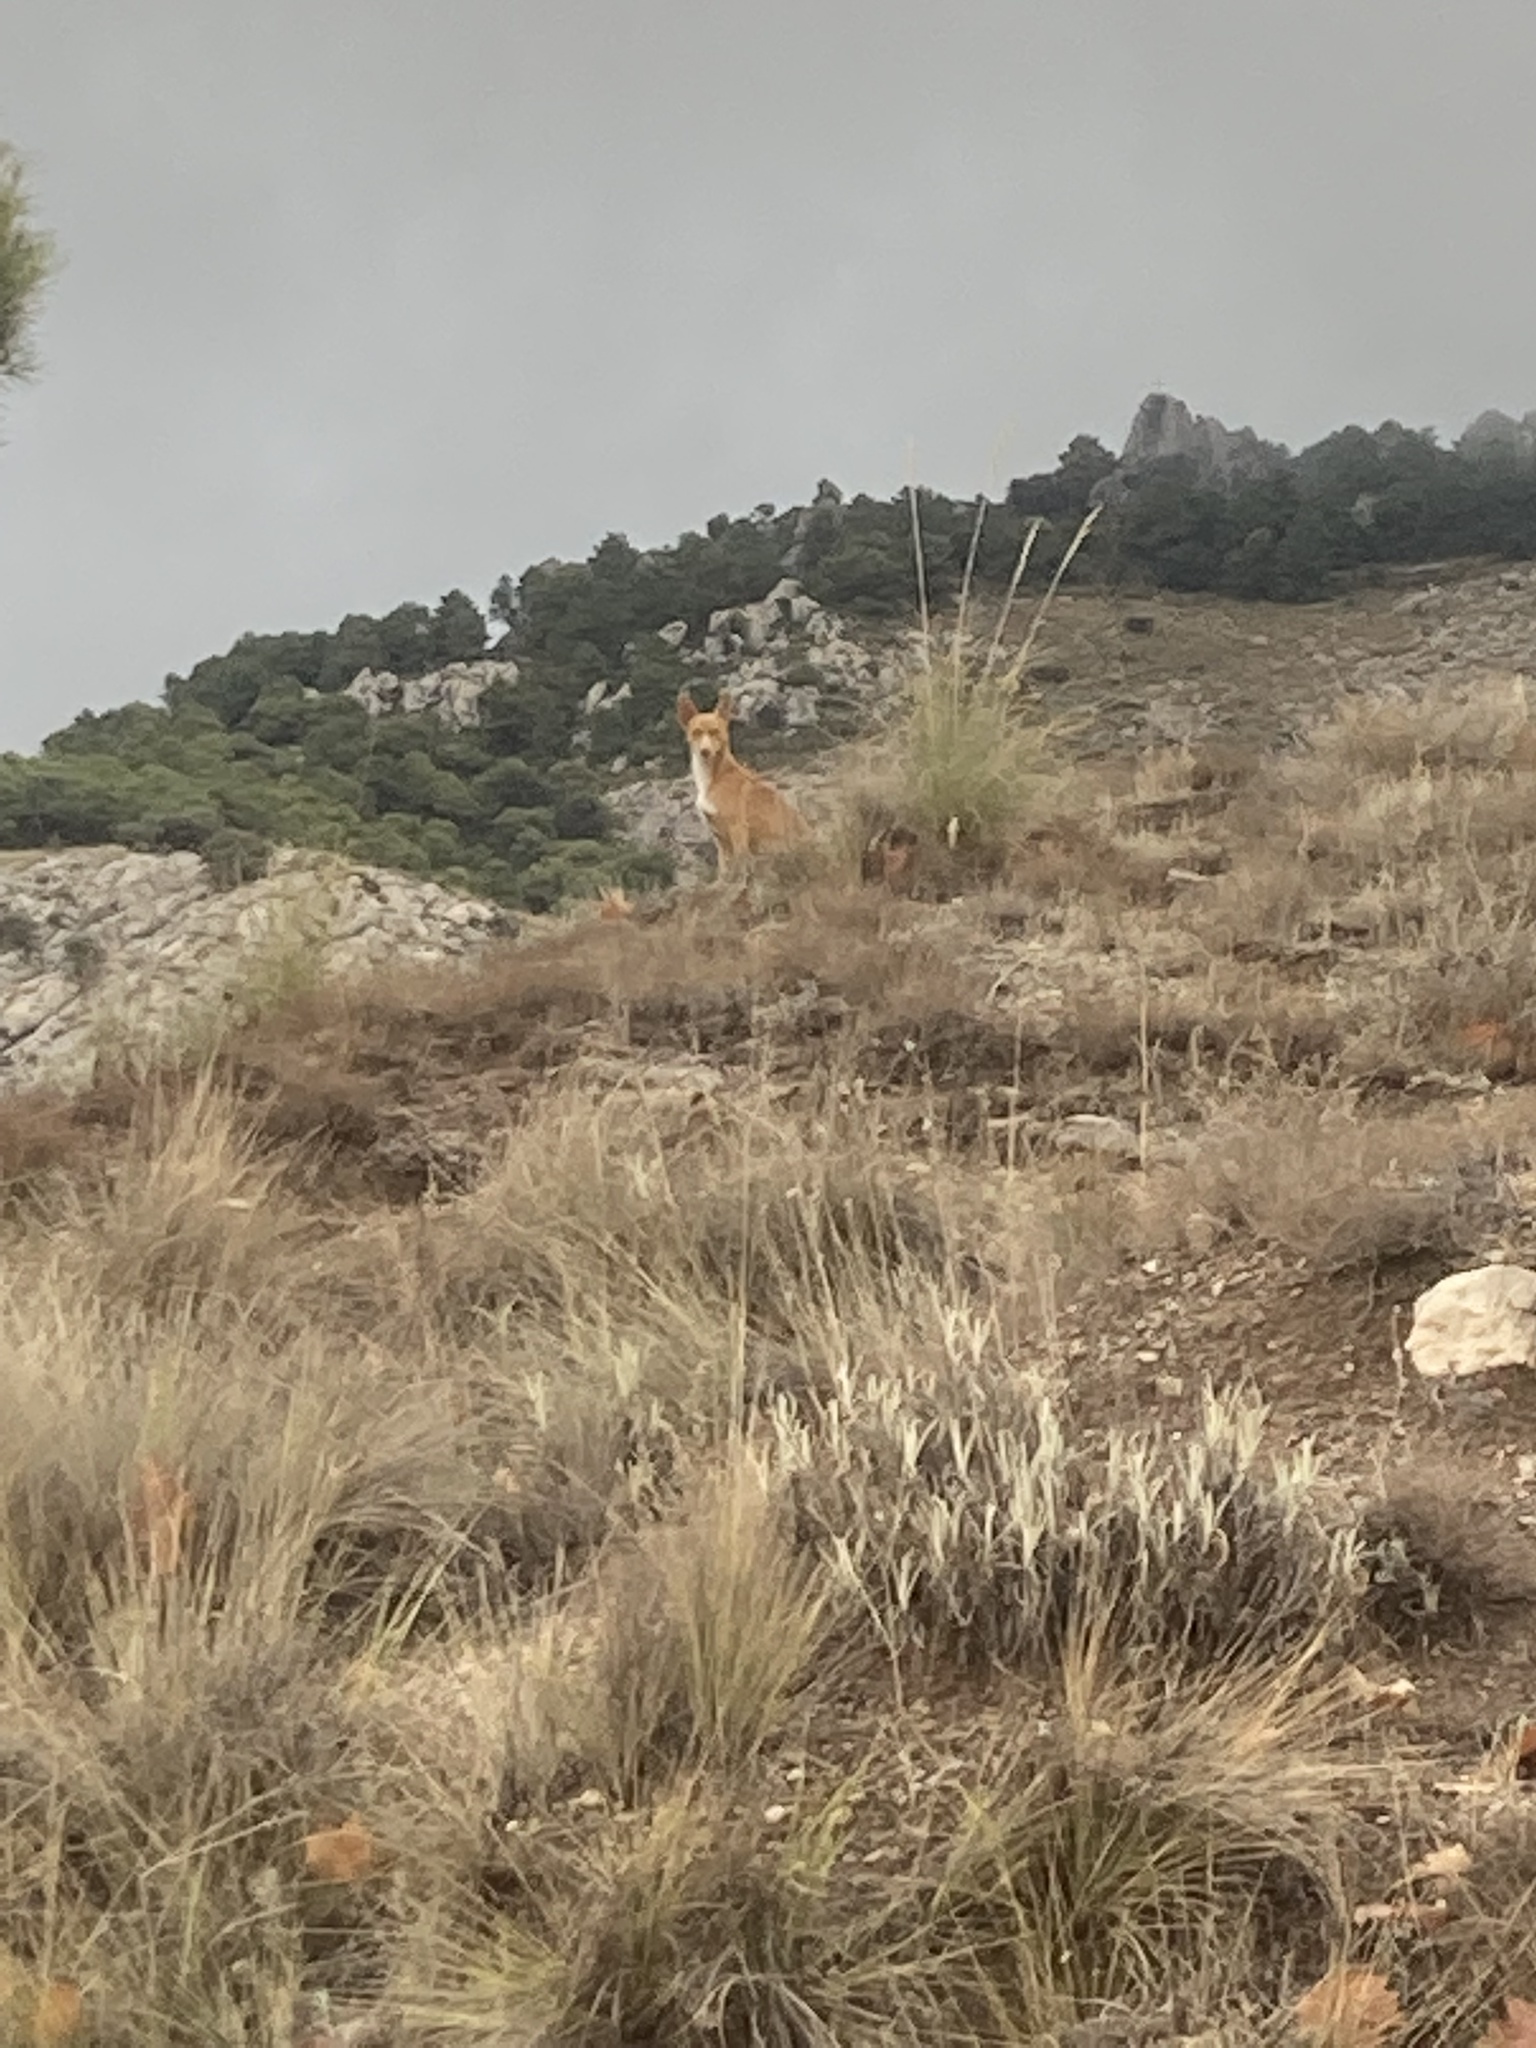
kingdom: Plantae
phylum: Tracheophyta
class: Liliopsida
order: Poales
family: Poaceae
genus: Macrochloa
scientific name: Macrochloa tenacissima
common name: Alfa grass
